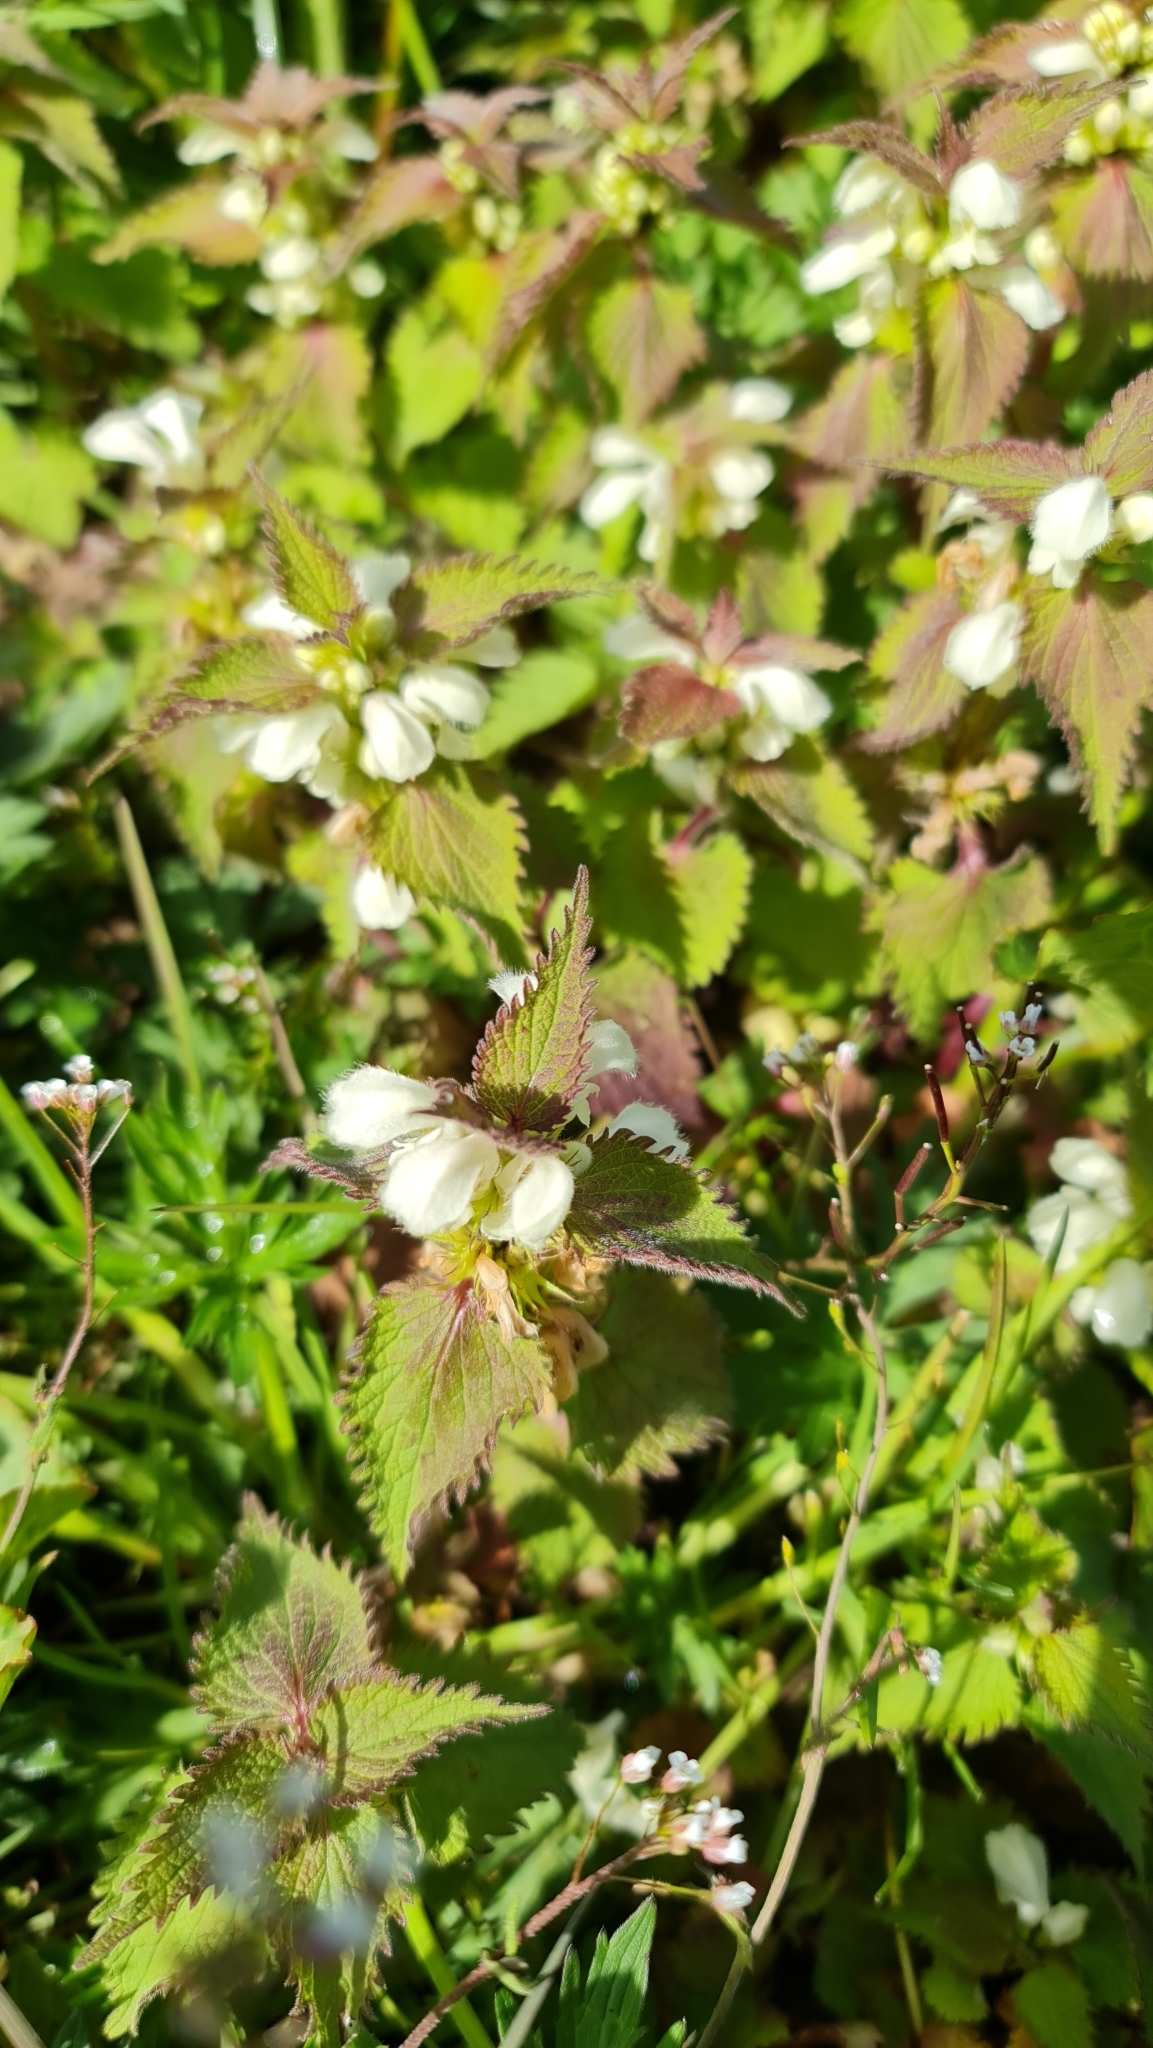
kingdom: Plantae
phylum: Tracheophyta
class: Magnoliopsida
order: Lamiales
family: Lamiaceae
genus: Lamium
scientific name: Lamium album
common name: White dead-nettle
